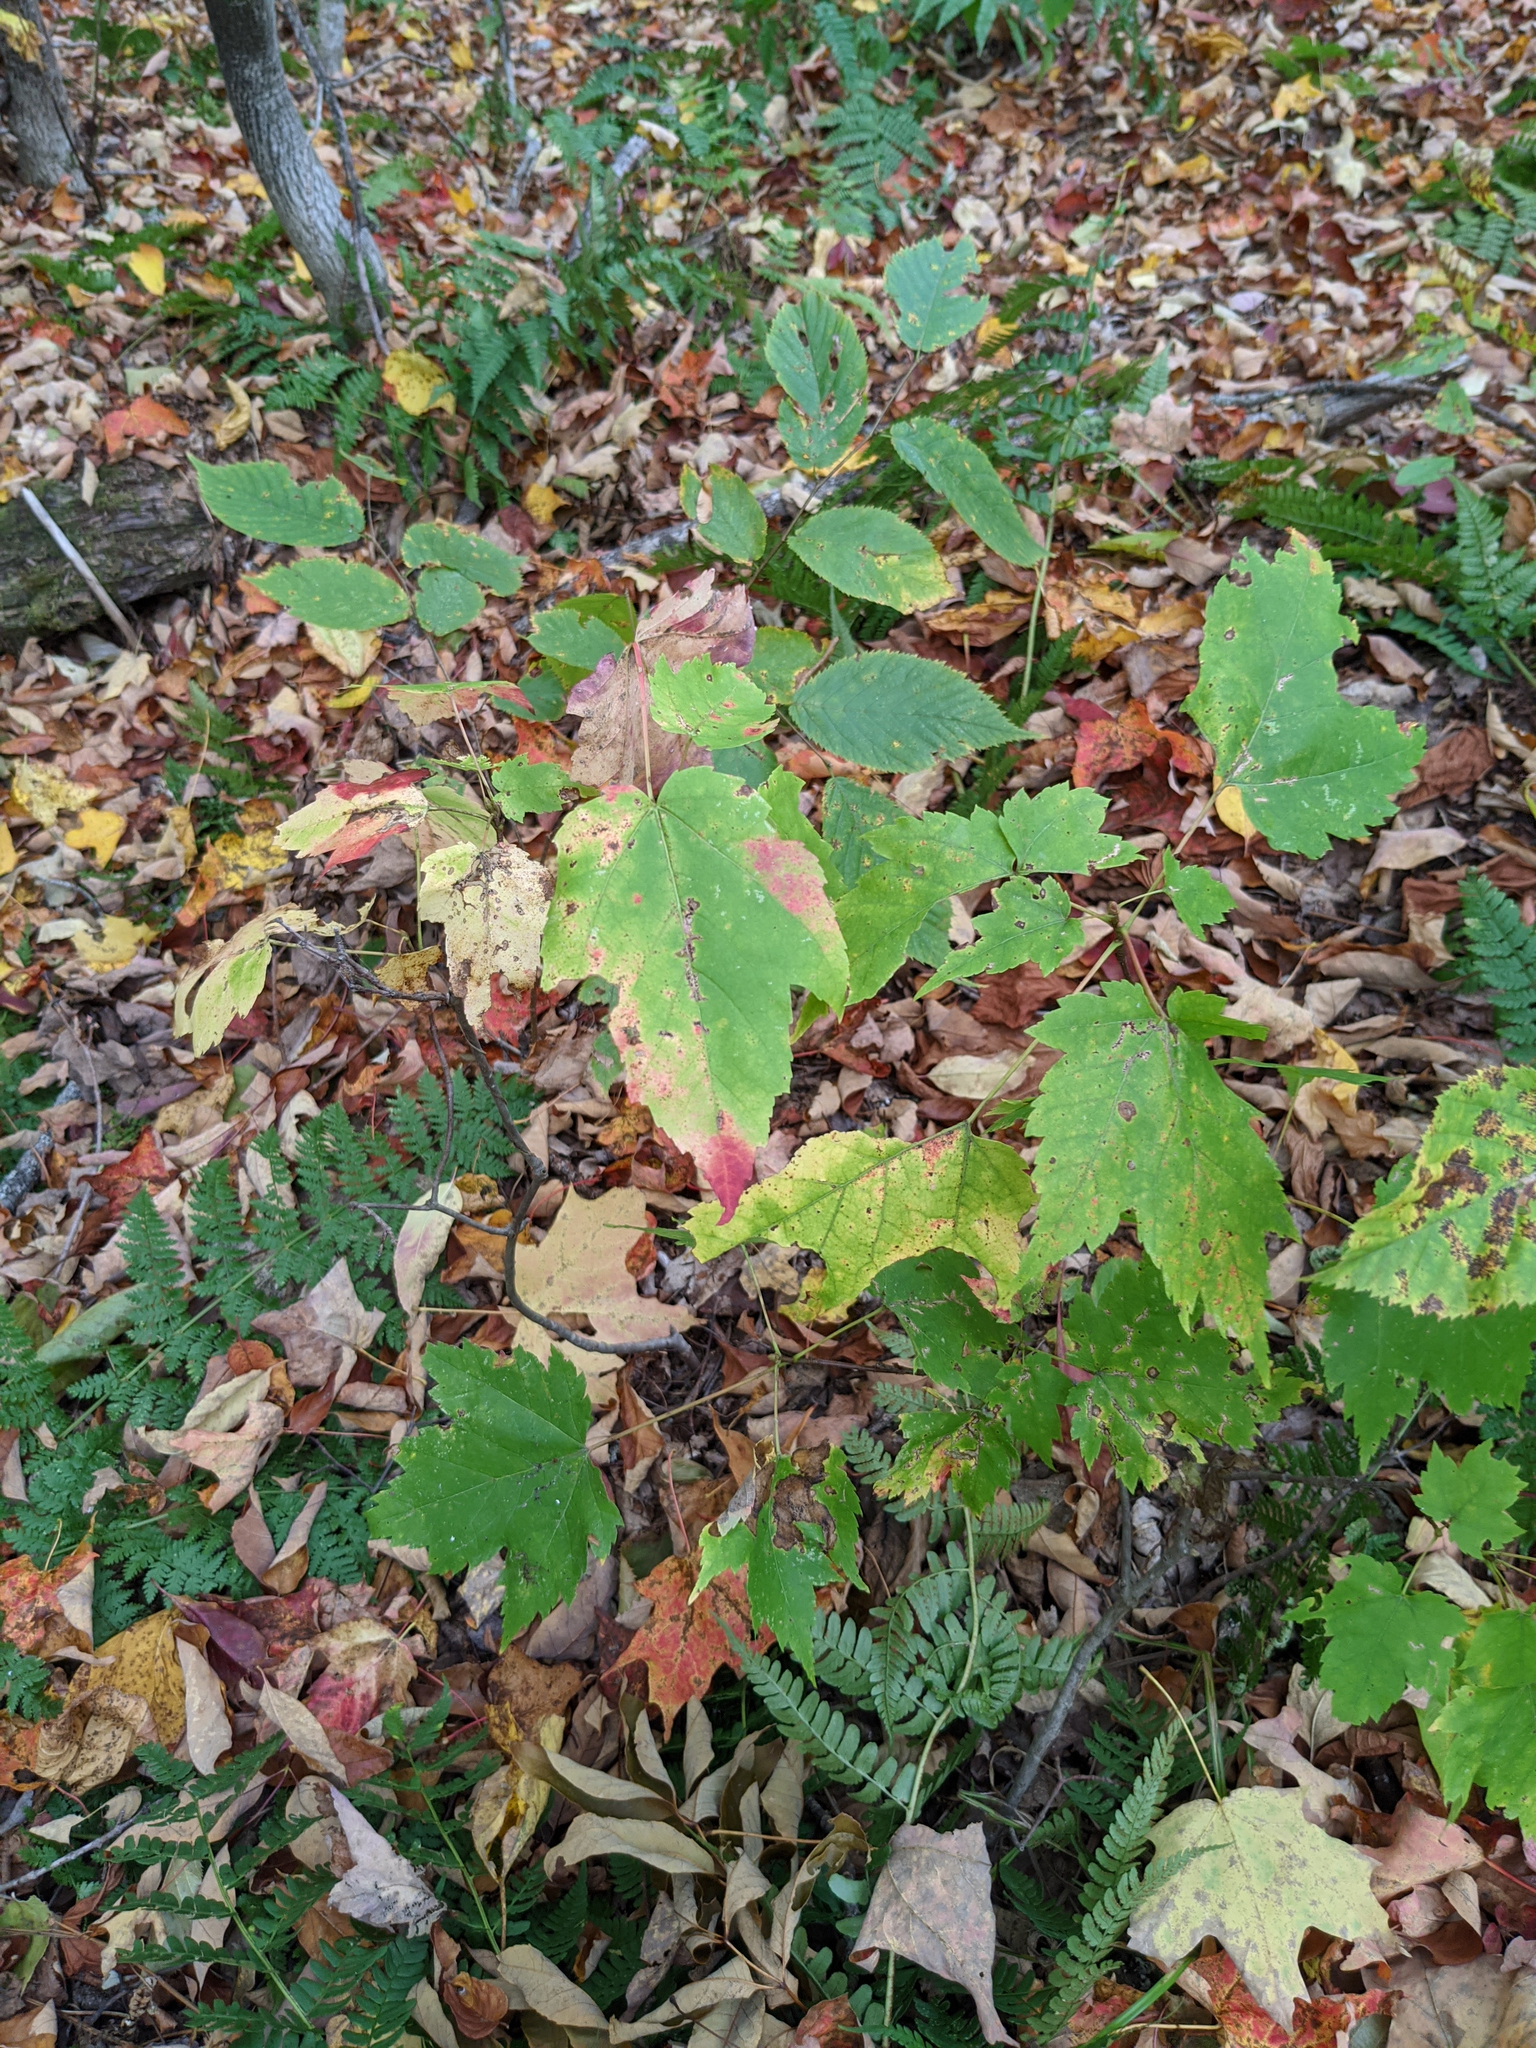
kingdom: Plantae
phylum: Tracheophyta
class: Magnoliopsida
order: Sapindales
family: Sapindaceae
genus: Acer
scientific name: Acer rubrum
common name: Red maple
